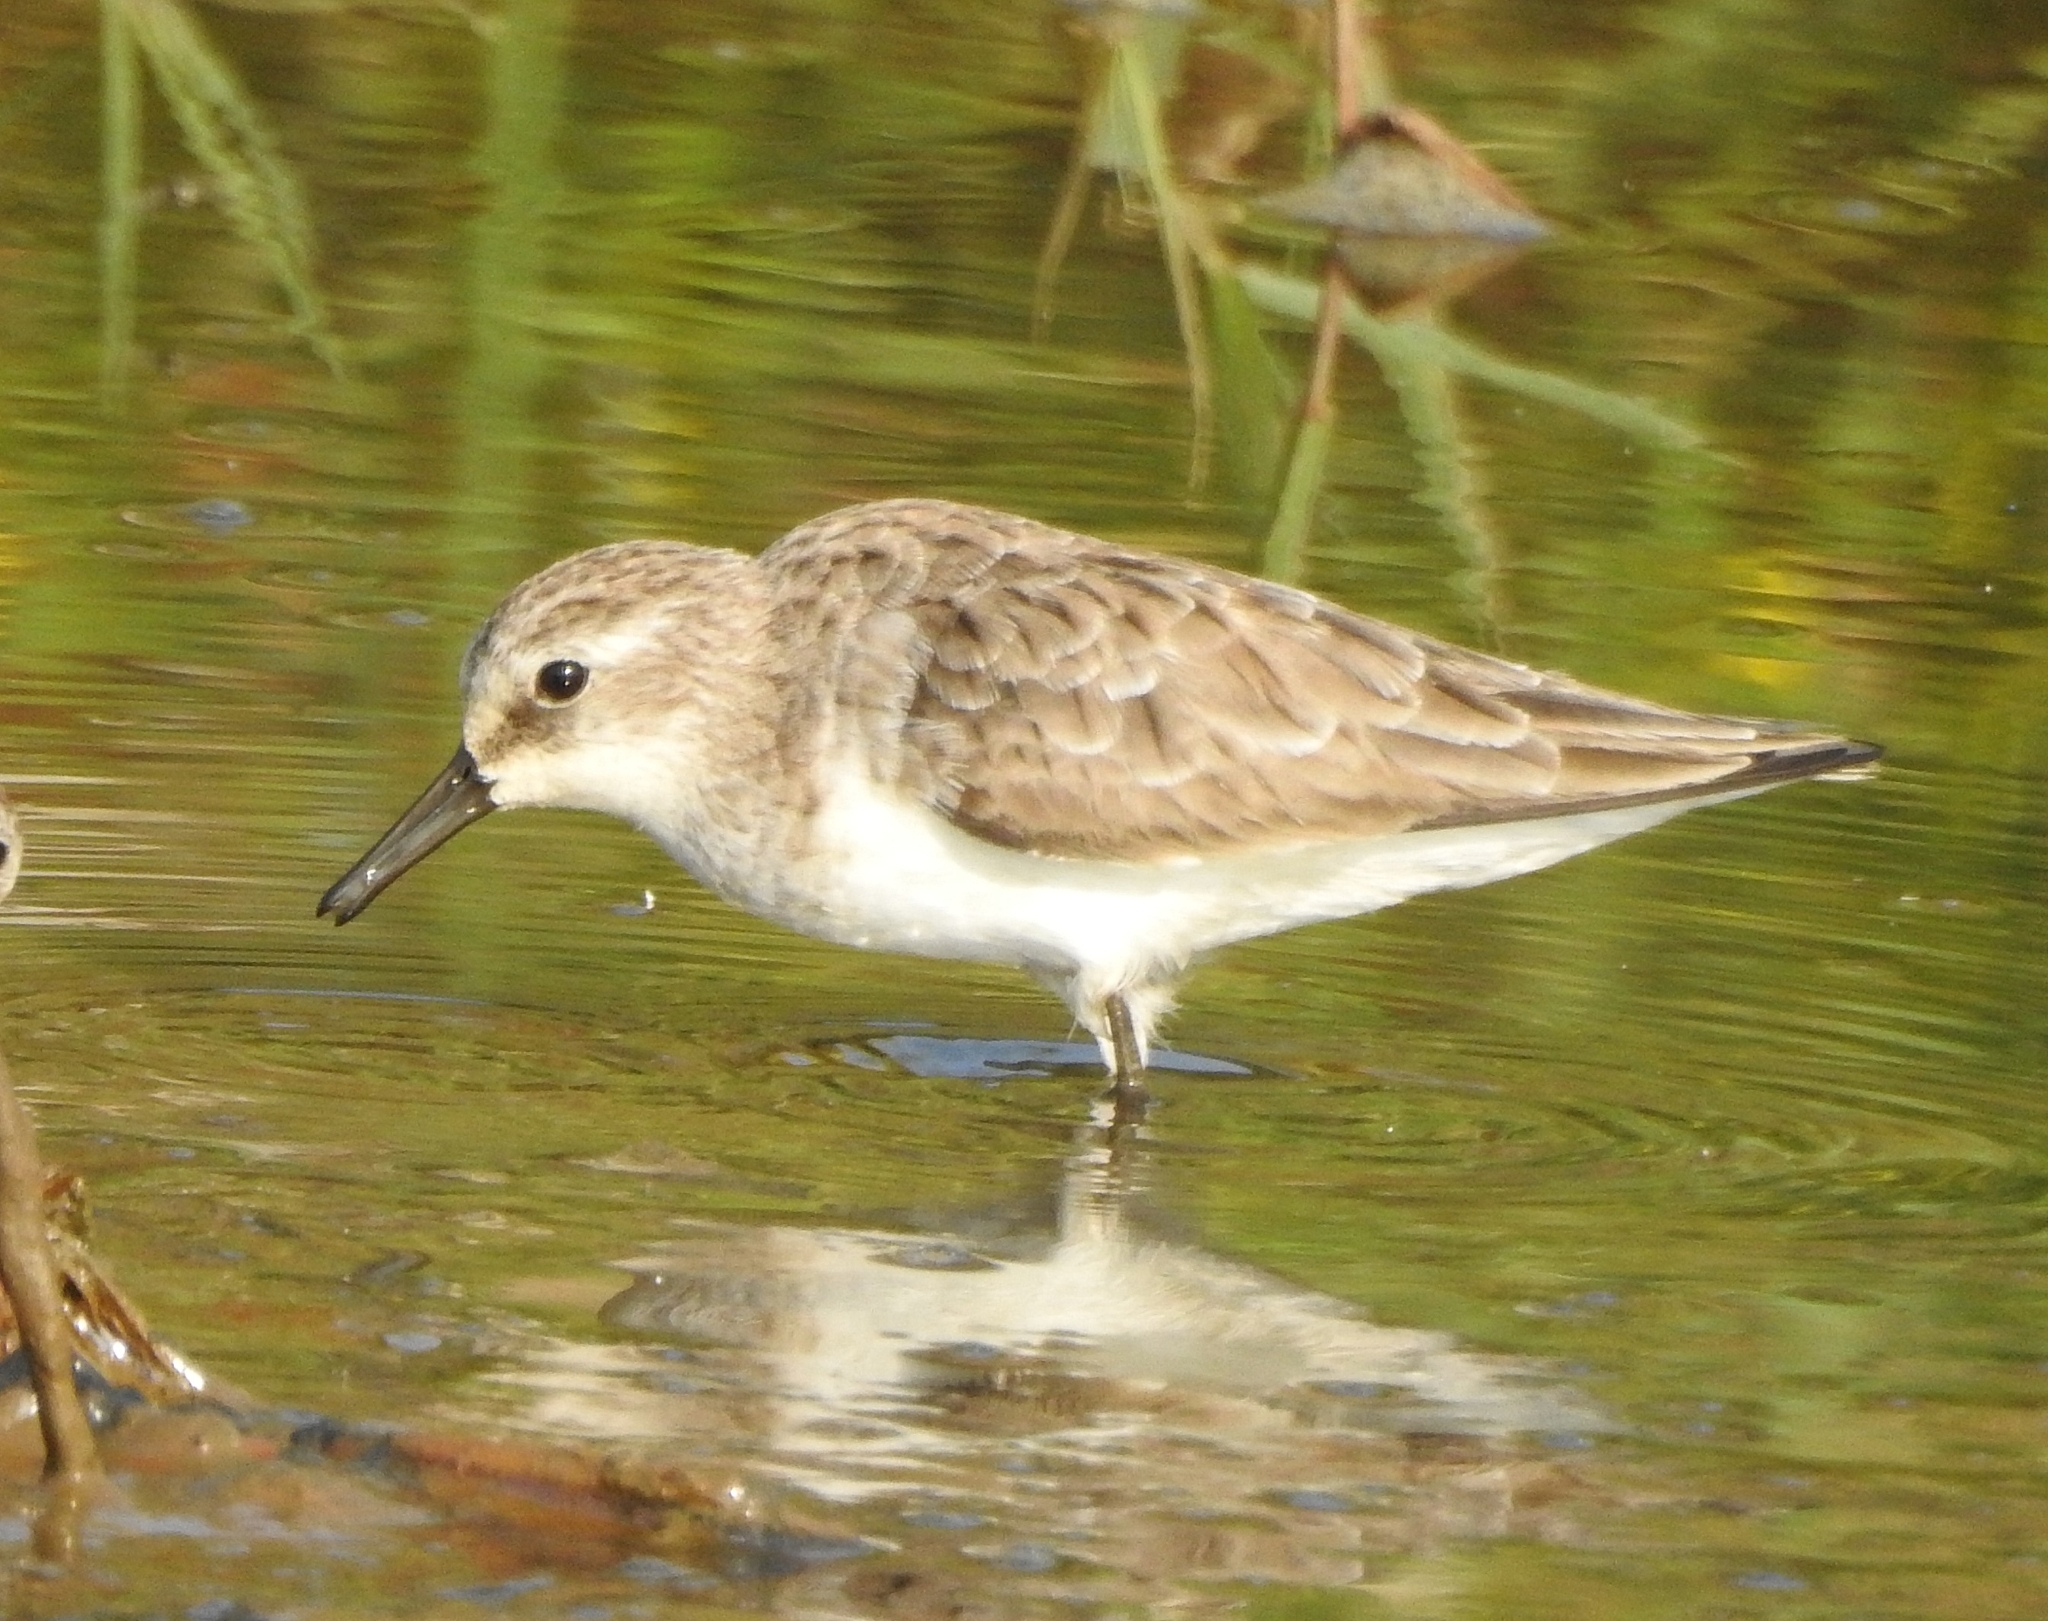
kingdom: Animalia
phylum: Chordata
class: Aves
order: Charadriiformes
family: Scolopacidae
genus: Calidris
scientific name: Calidris minuta
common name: Little stint
